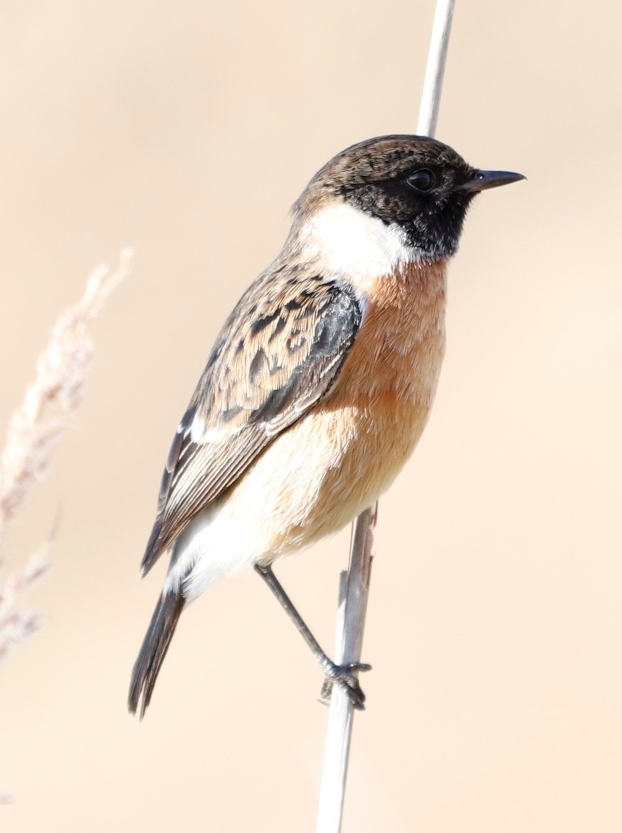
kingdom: Animalia
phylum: Chordata
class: Aves
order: Passeriformes
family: Muscicapidae
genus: Saxicola
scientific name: Saxicola torquatus
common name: African stonechat
